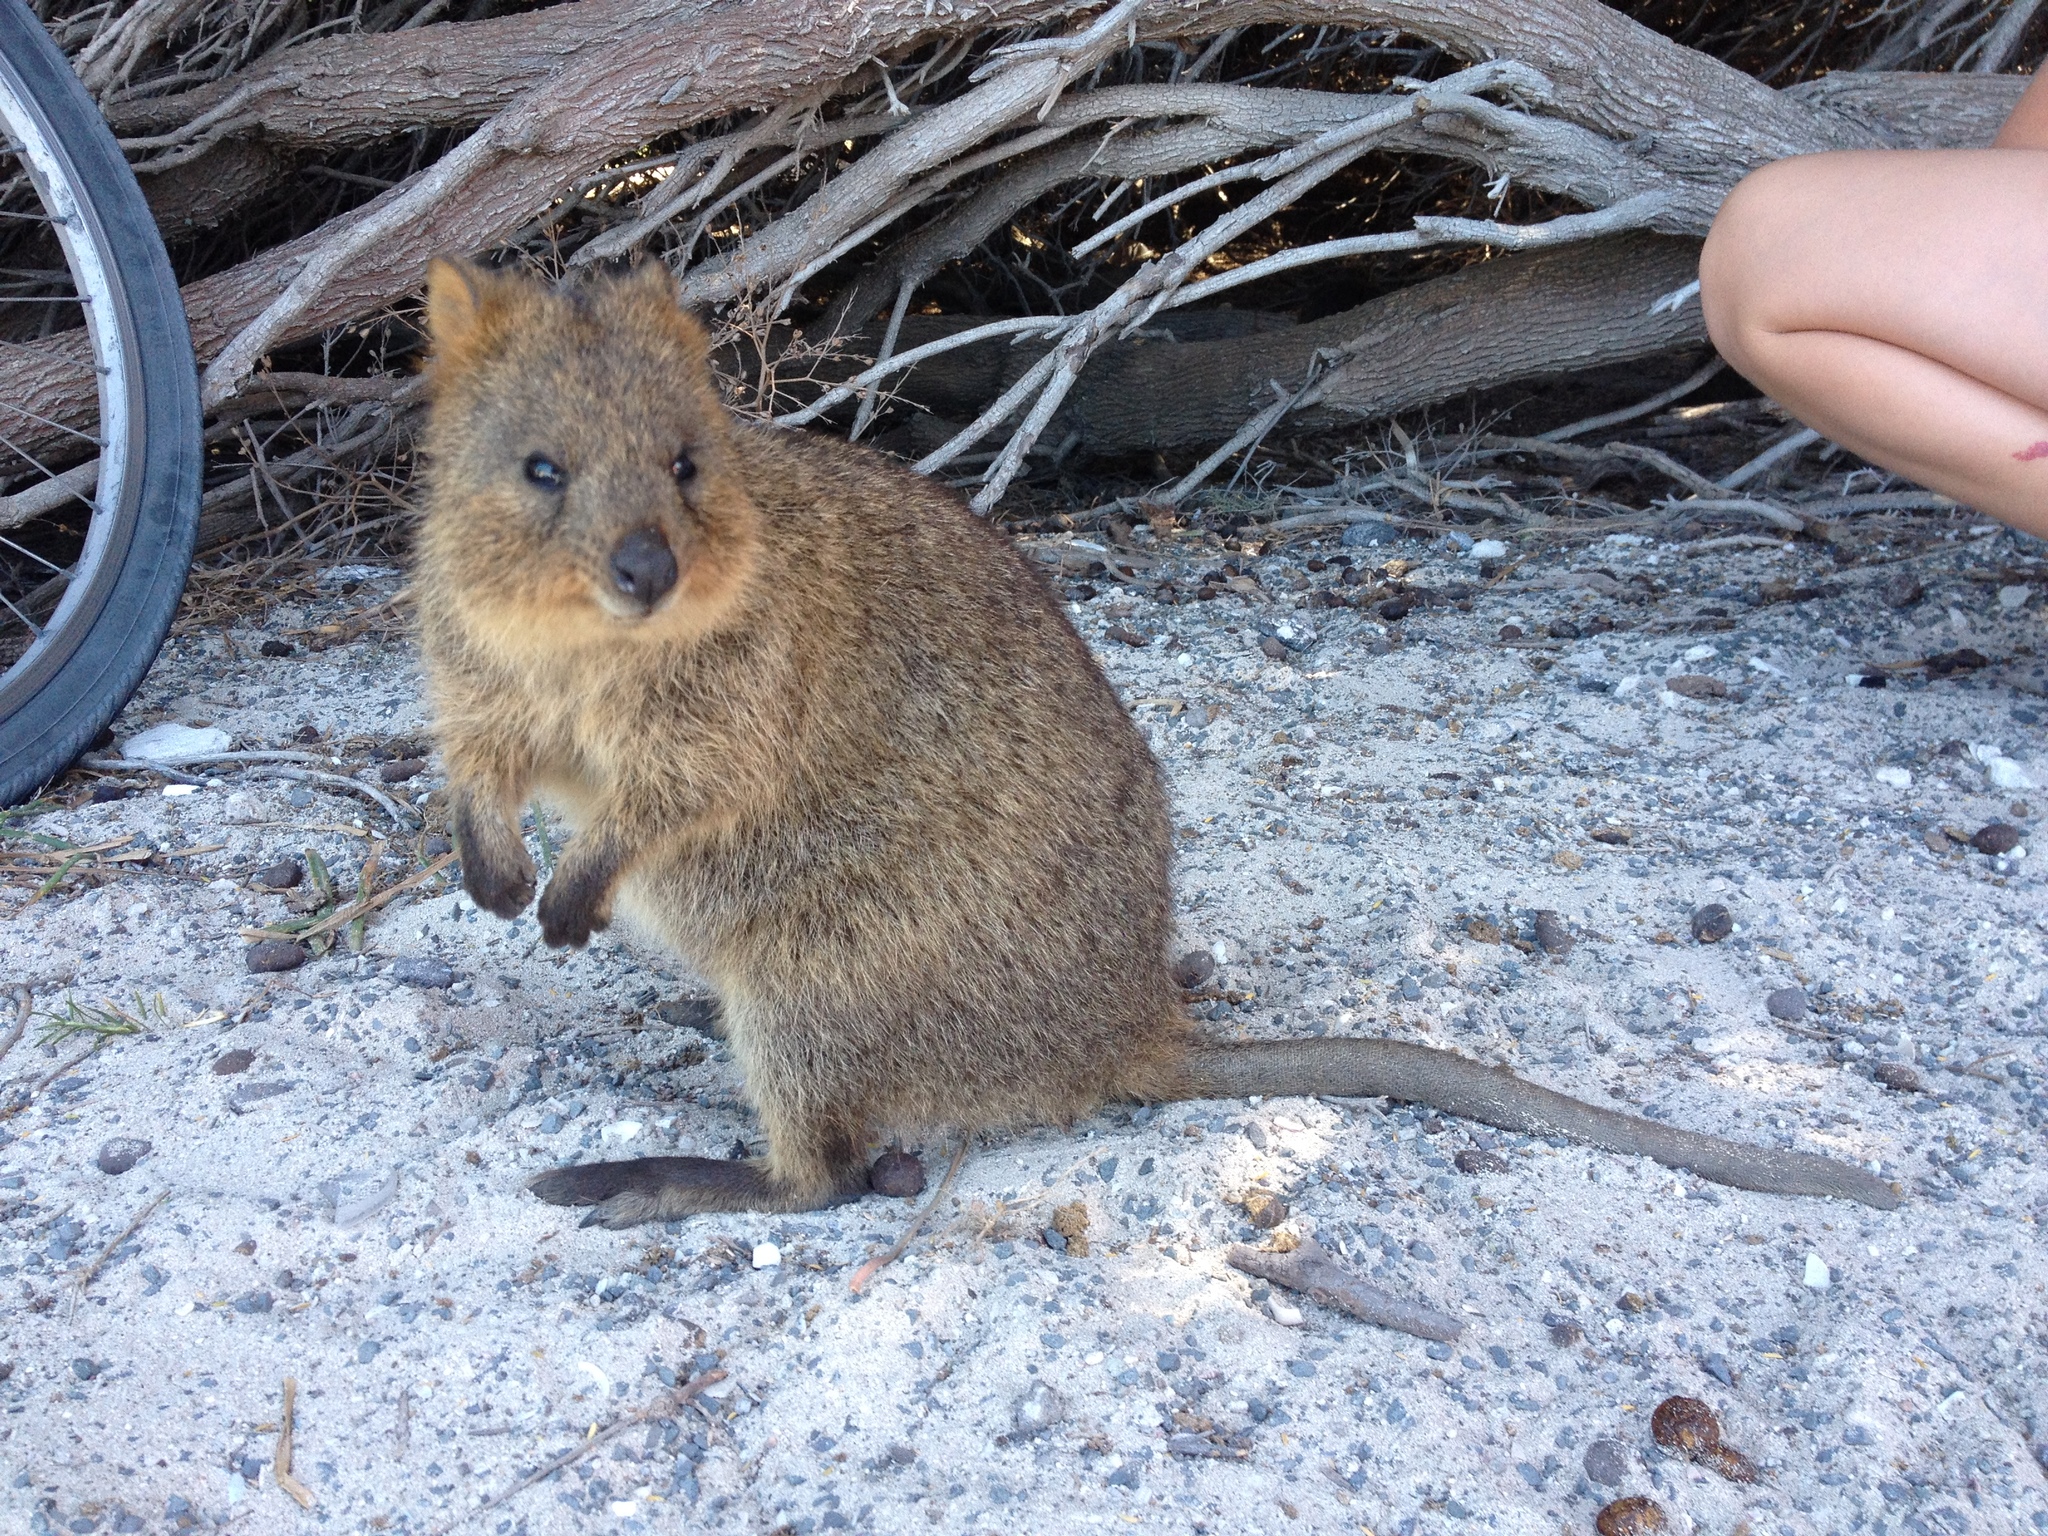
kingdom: Animalia
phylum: Chordata
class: Mammalia
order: Diprotodontia
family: Macropodidae
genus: Setonix
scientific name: Setonix brachyurus
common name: Quokka
